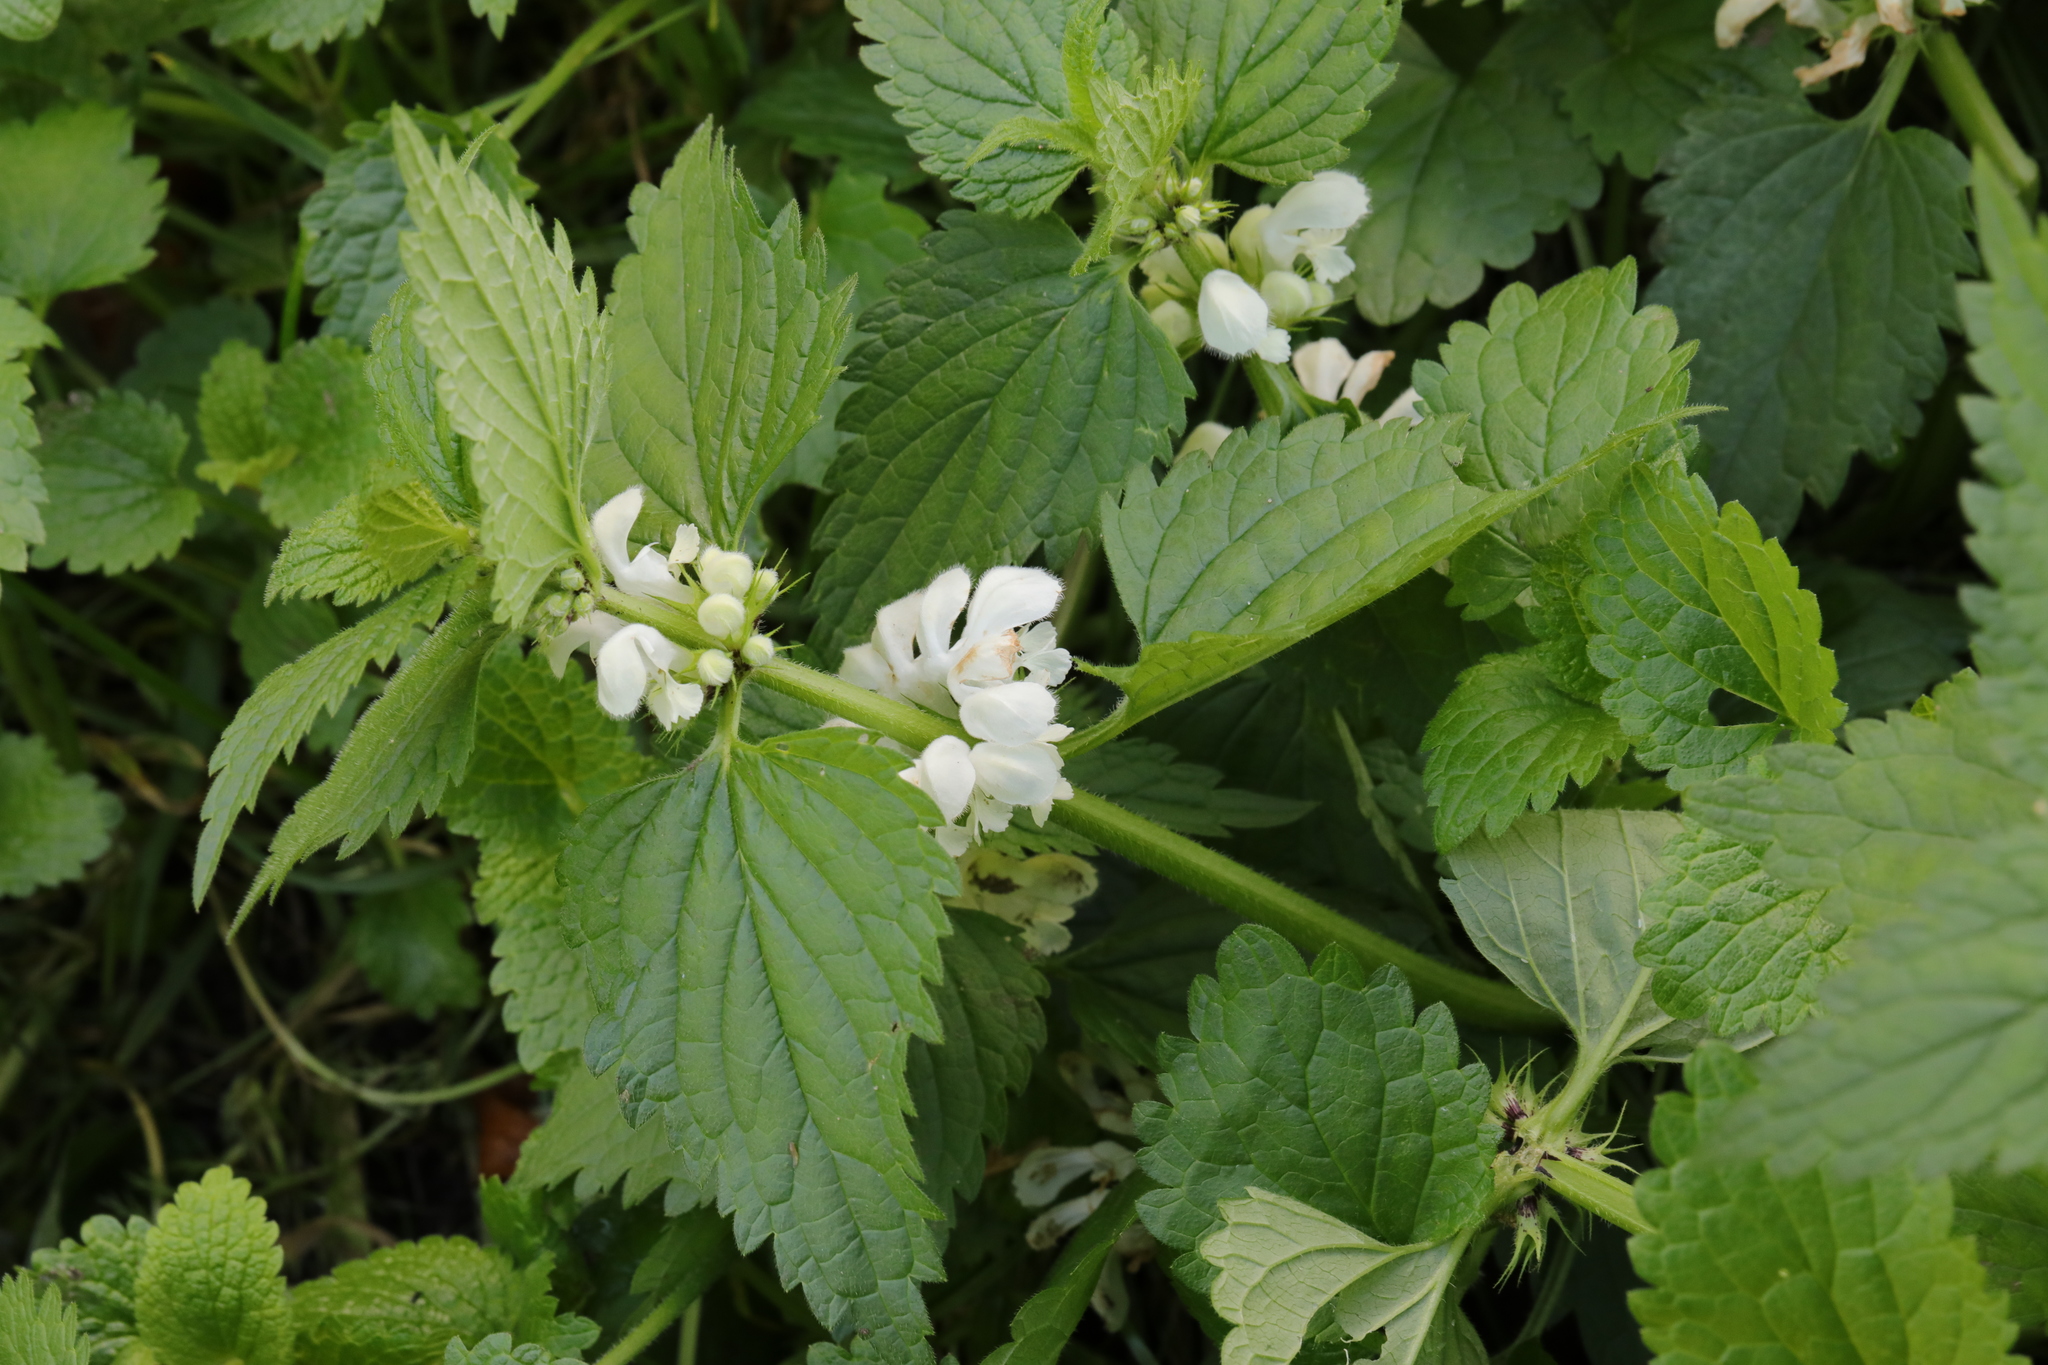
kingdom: Plantae
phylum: Tracheophyta
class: Magnoliopsida
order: Lamiales
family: Lamiaceae
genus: Lamium
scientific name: Lamium album
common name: White dead-nettle
